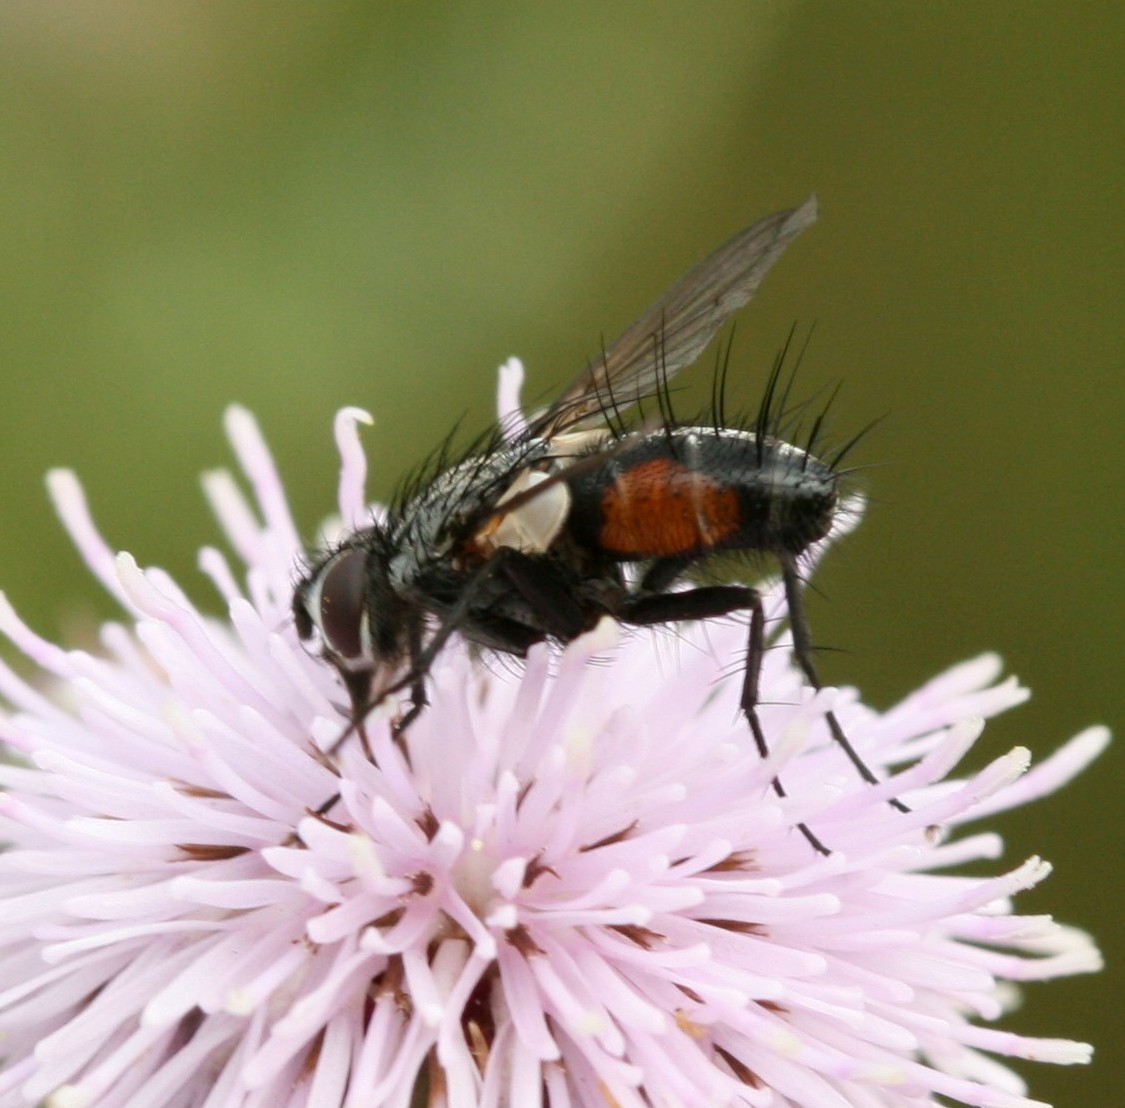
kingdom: Animalia
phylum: Arthropoda
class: Insecta
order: Diptera
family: Tachinidae
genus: Eriothrix
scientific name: Eriothrix rufomaculatus
